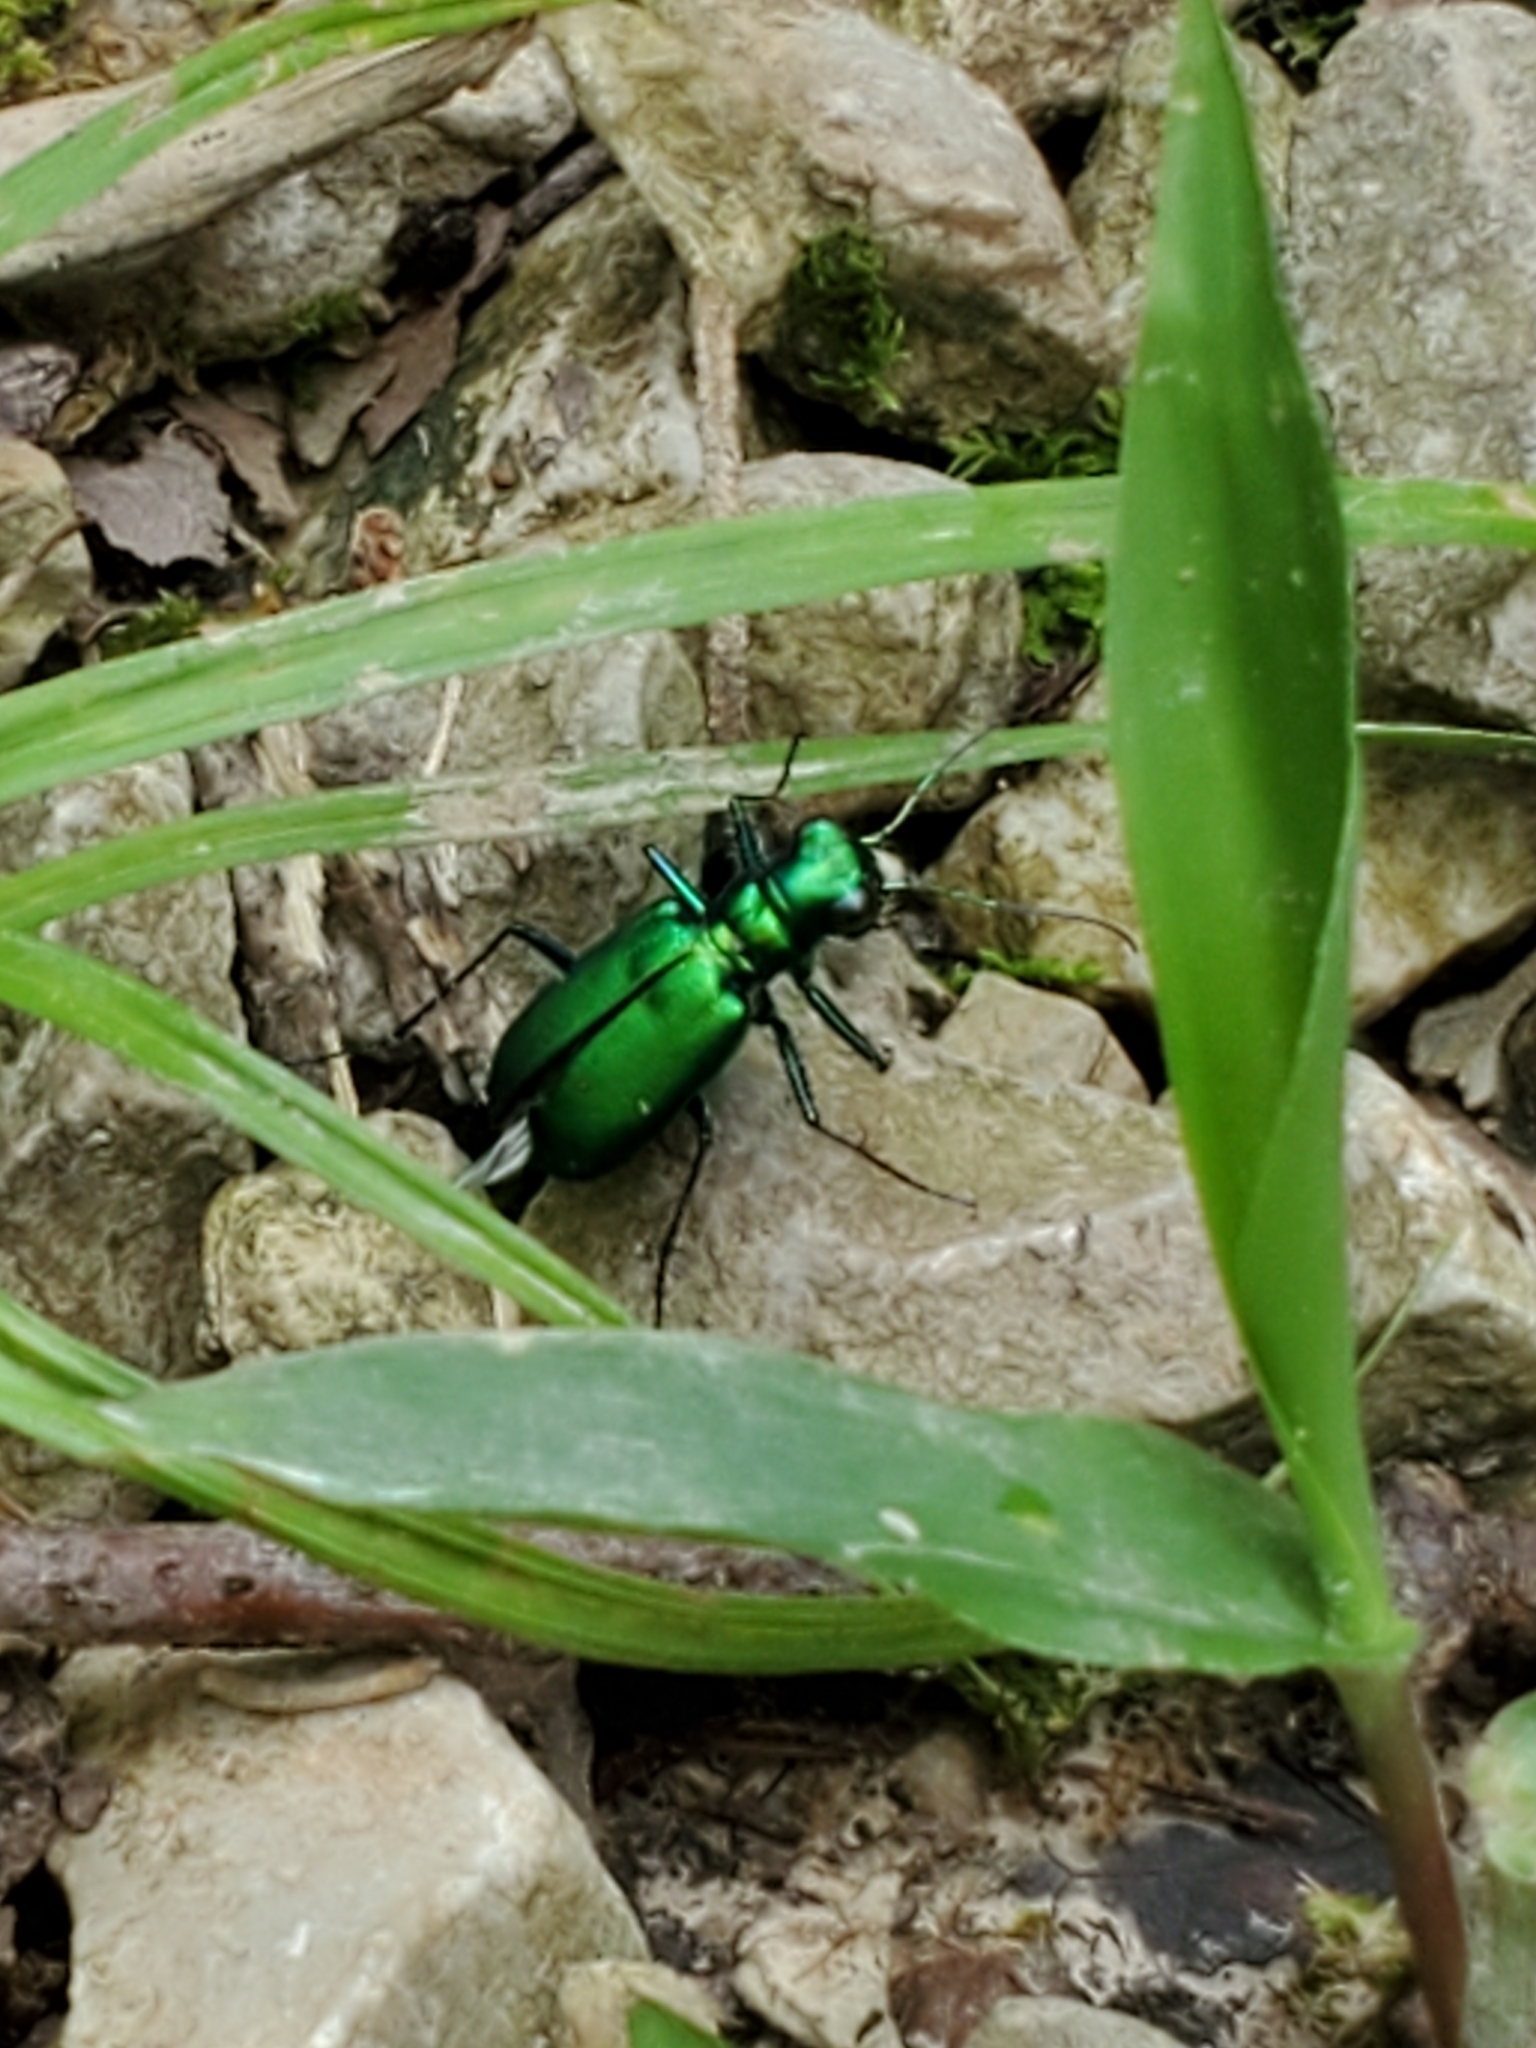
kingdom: Animalia
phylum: Arthropoda
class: Insecta
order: Coleoptera
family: Carabidae
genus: Cicindela
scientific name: Cicindela sexguttata
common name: Six-spotted tiger beetle
